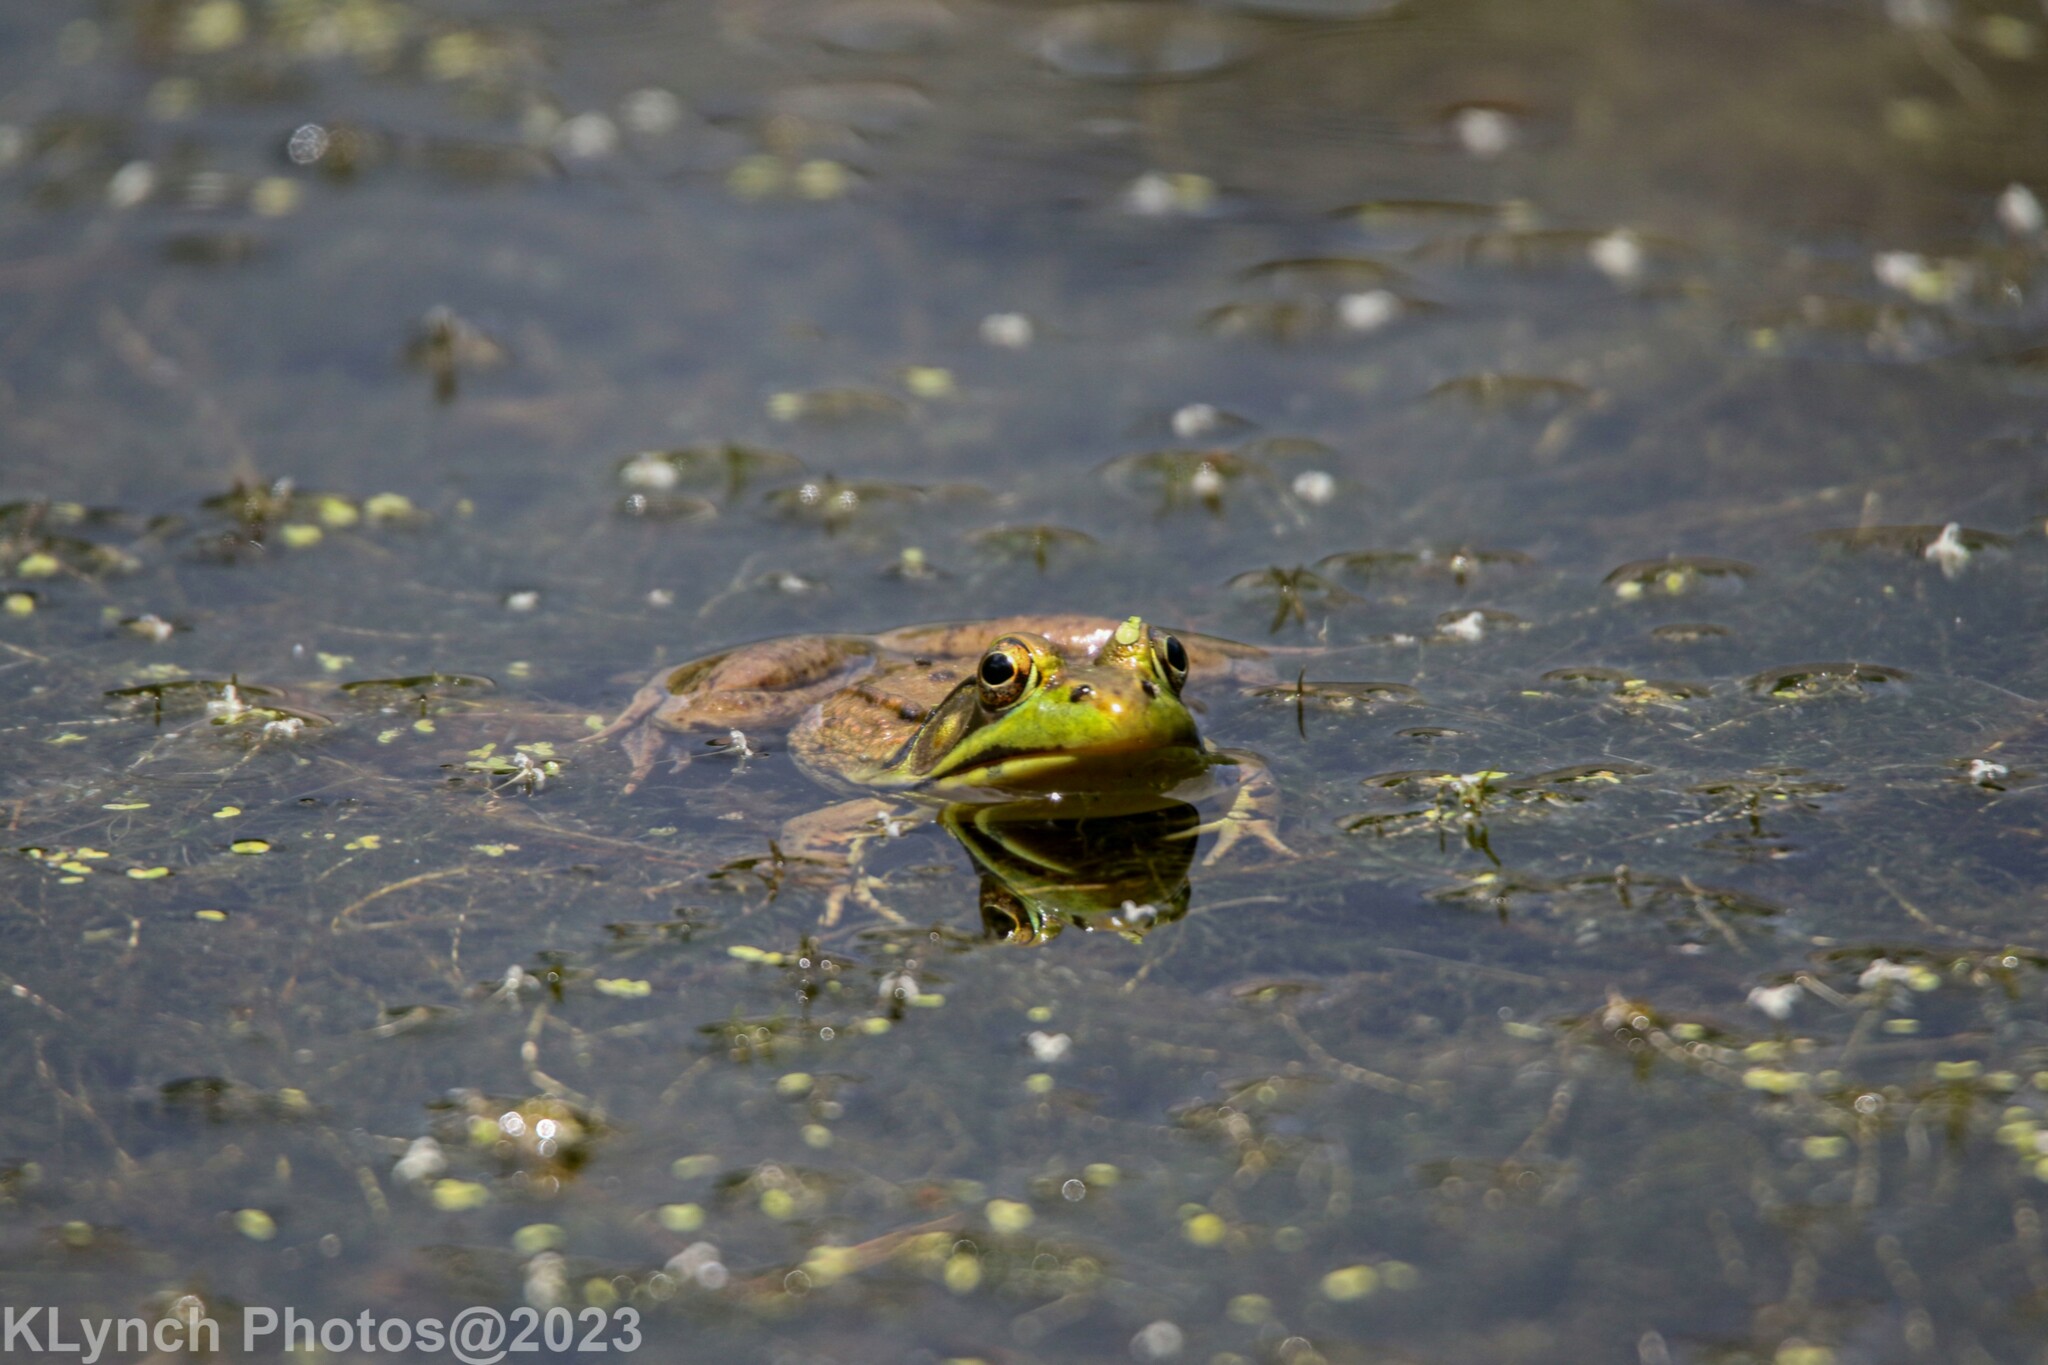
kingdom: Animalia
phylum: Chordata
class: Amphibia
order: Anura
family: Ranidae
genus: Lithobates
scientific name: Lithobates clamitans
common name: Green frog
